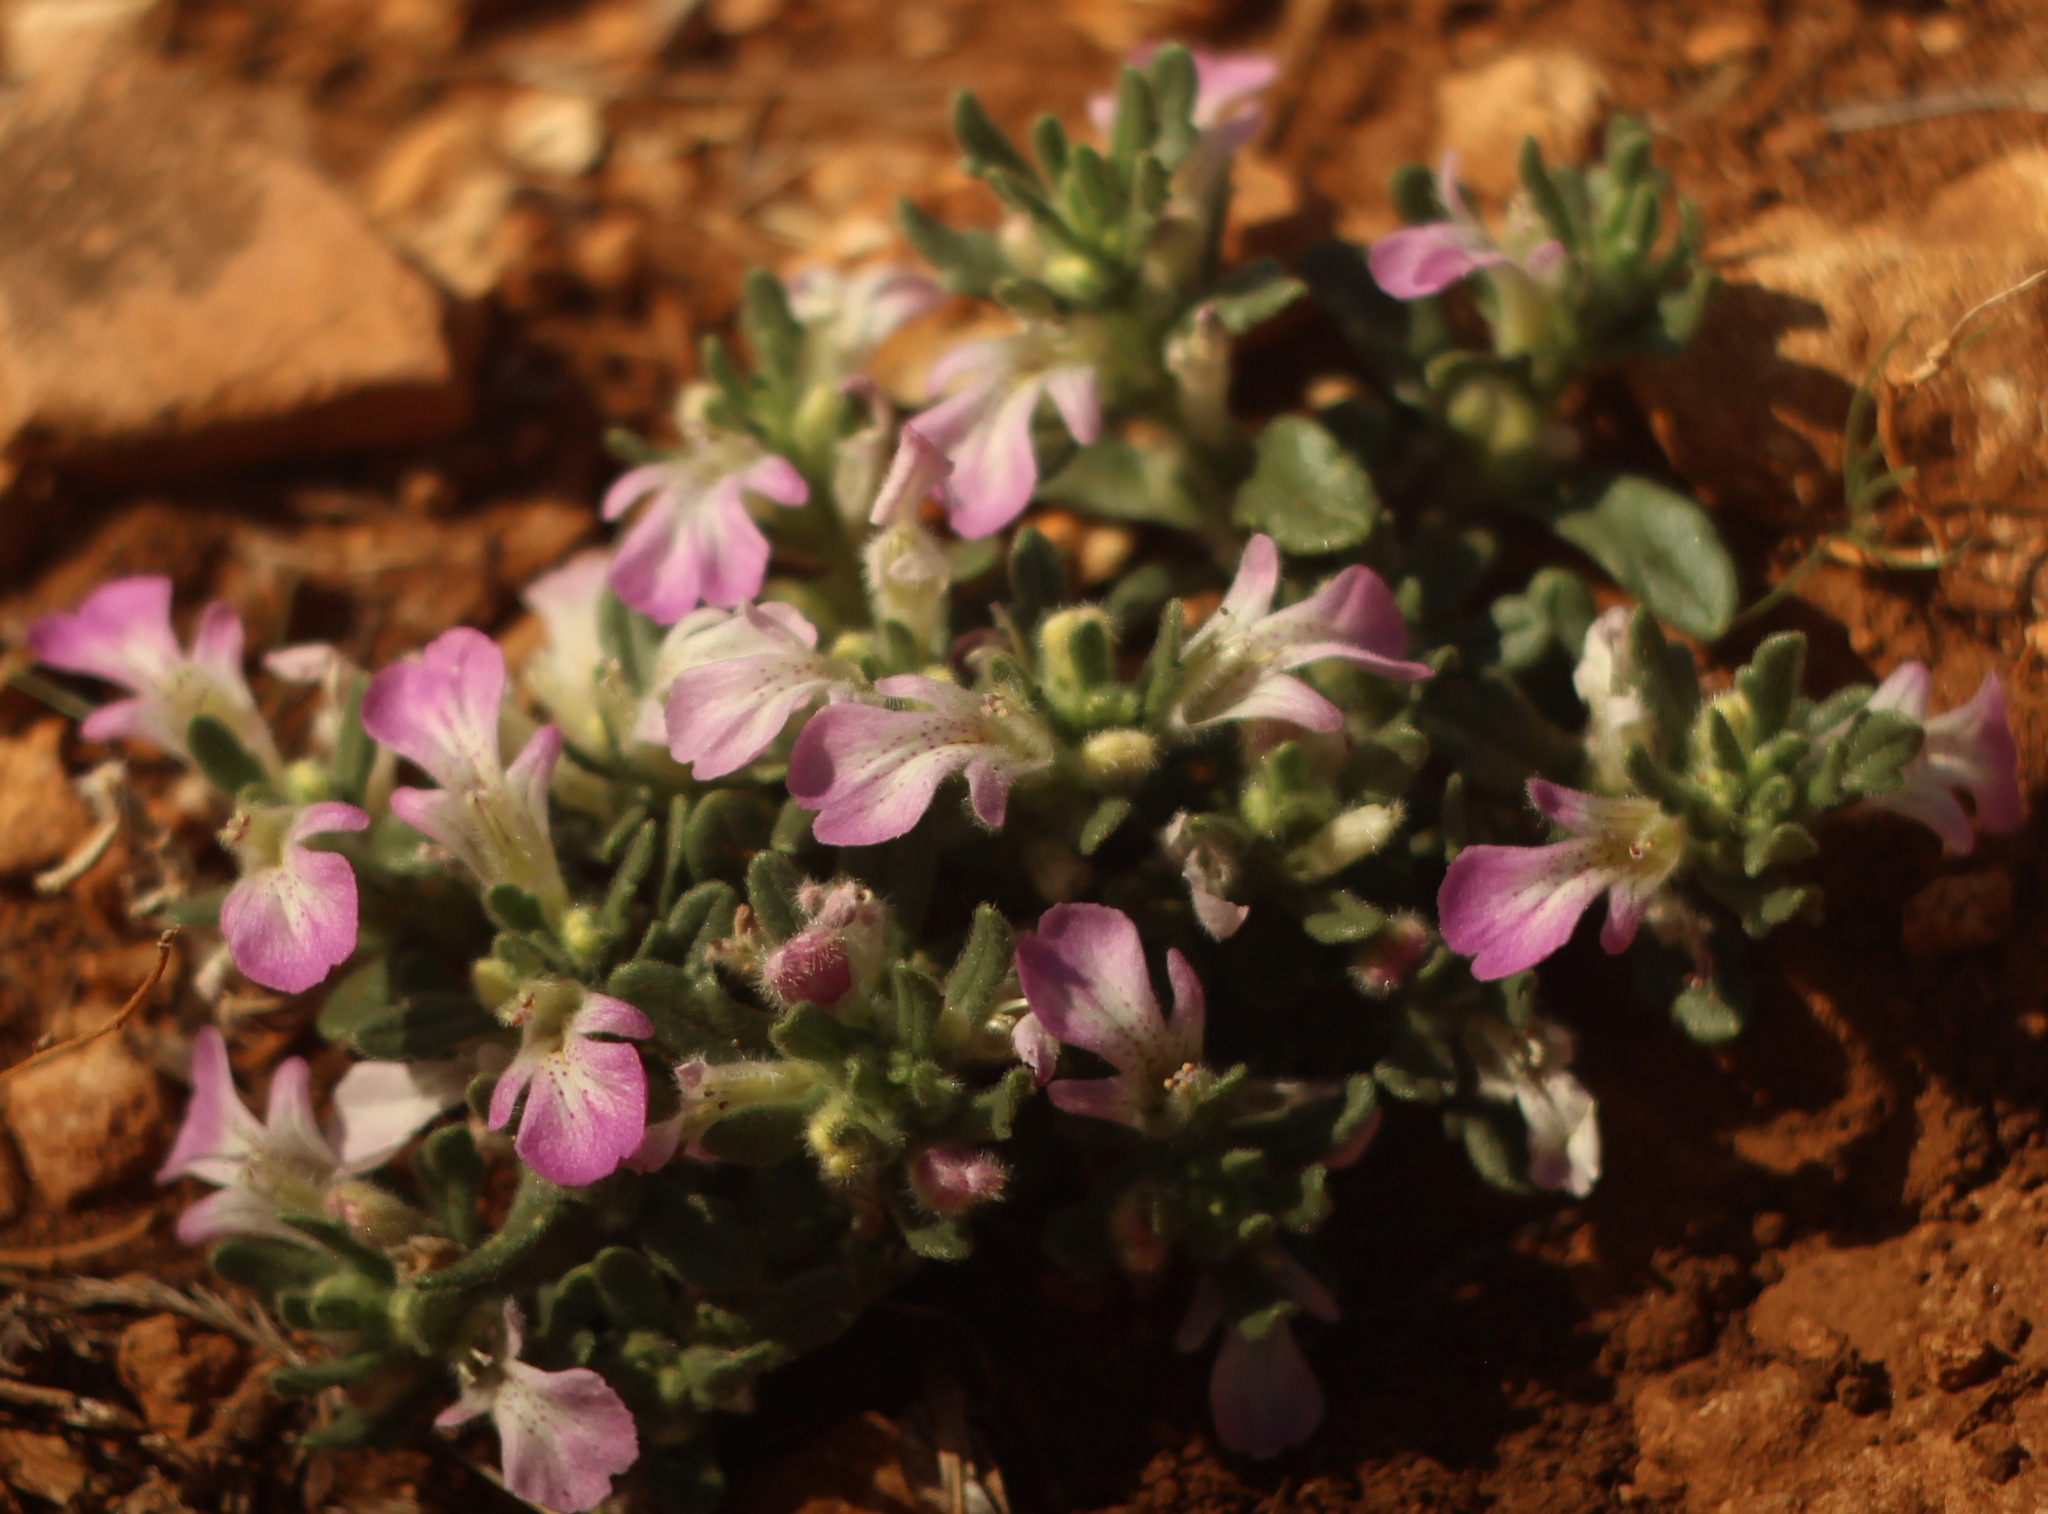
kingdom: Plantae
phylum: Tracheophyta
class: Magnoliopsida
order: Lamiales
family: Lamiaceae
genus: Ajuga
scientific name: Ajuga iva
